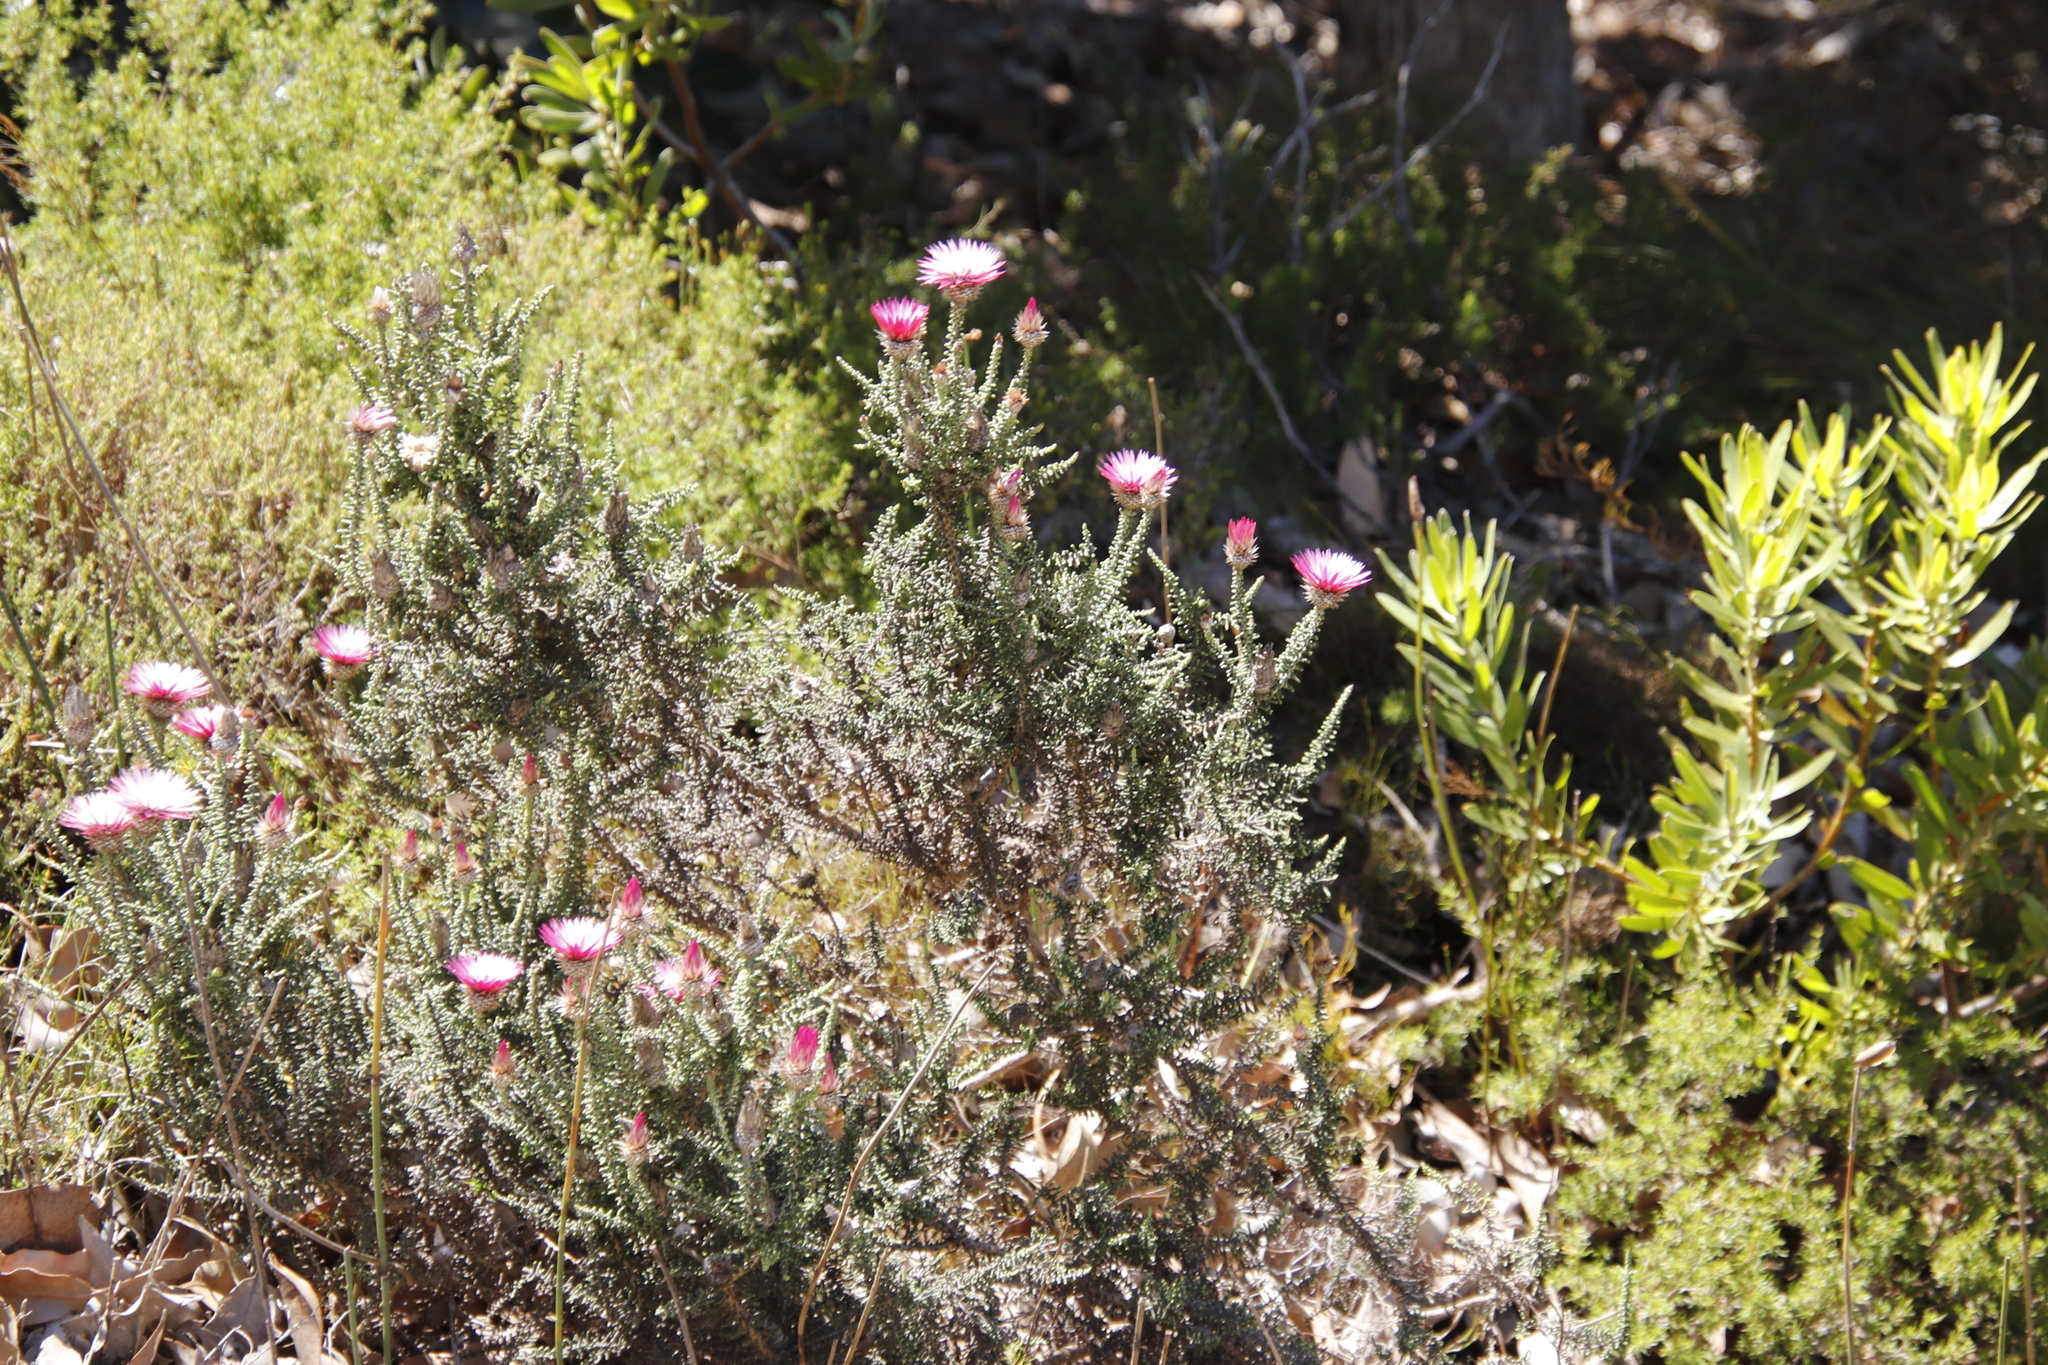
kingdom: Plantae
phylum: Tracheophyta
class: Magnoliopsida
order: Asterales
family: Asteraceae
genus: Phaenocoma
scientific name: Phaenocoma prolifera
